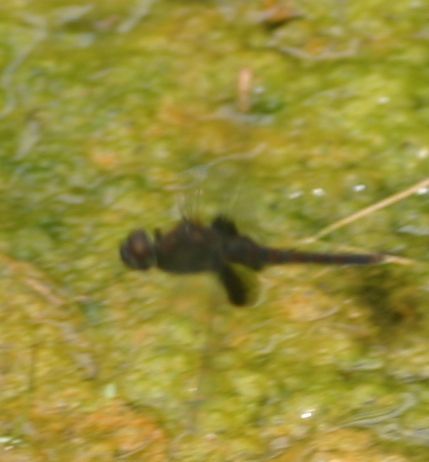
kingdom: Animalia
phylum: Arthropoda
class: Insecta
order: Odonata
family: Libellulidae
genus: Tramea
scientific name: Tramea limbata
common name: Ferruginous glider
